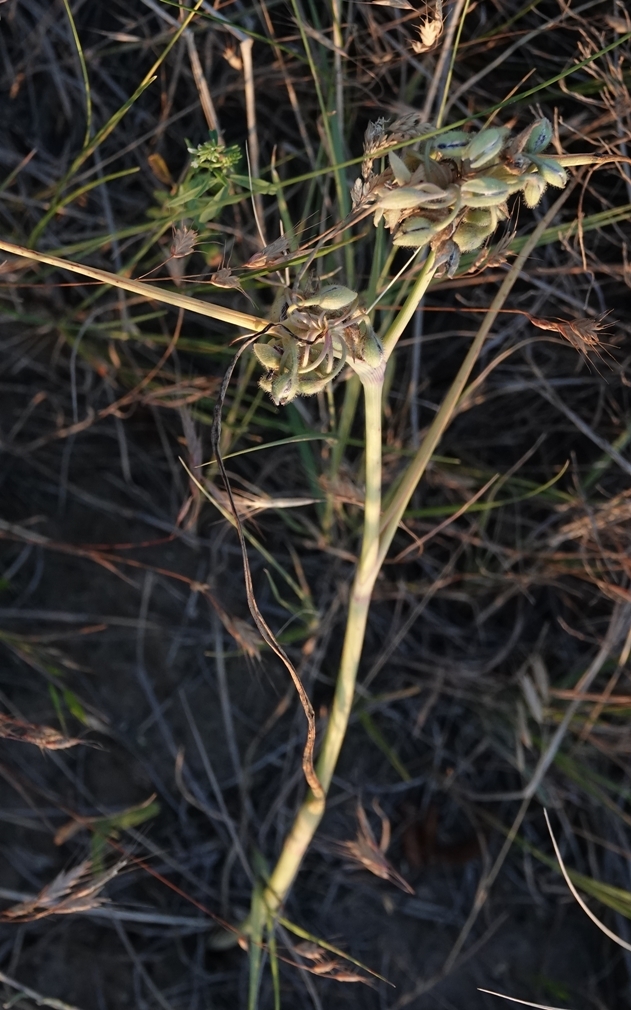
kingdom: Plantae
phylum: Tracheophyta
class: Liliopsida
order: Commelinales
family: Commelinaceae
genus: Tradescantia
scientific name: Tradescantia occidentalis
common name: Prairie spiderwort
